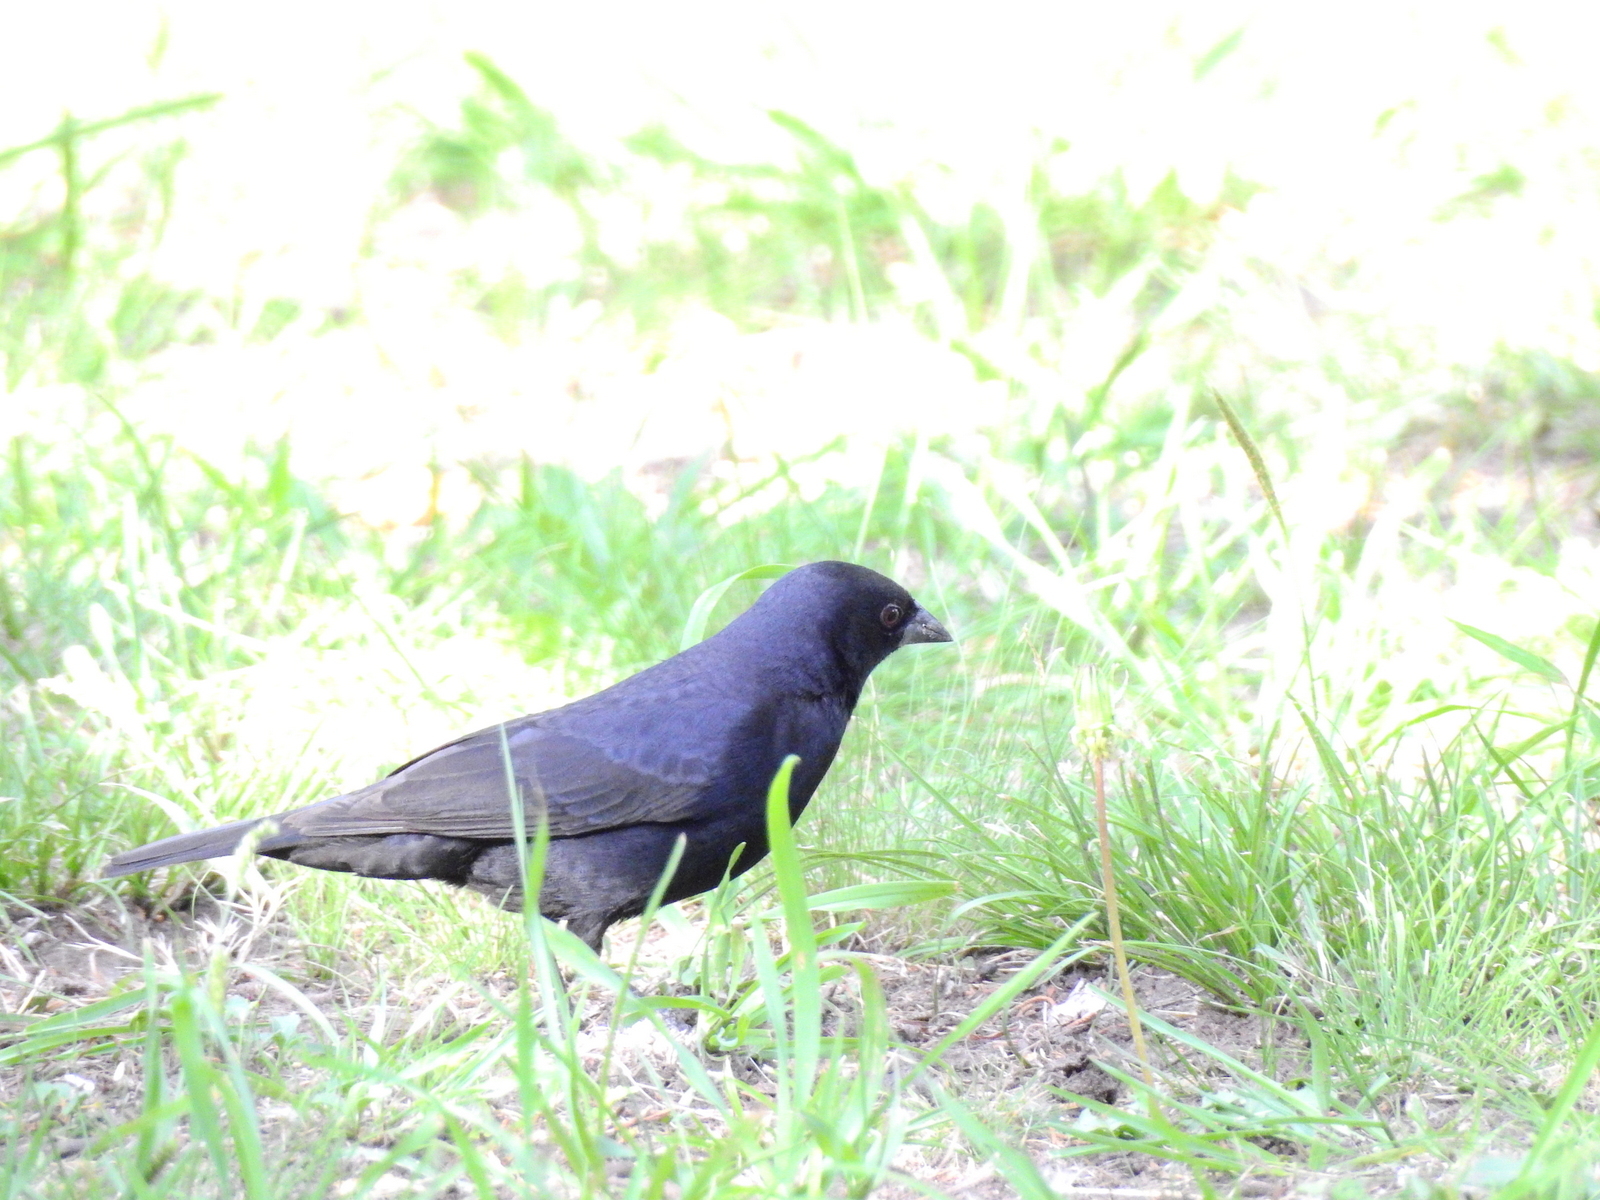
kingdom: Animalia
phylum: Chordata
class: Aves
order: Passeriformes
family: Icteridae
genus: Molothrus
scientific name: Molothrus bonariensis
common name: Shiny cowbird
